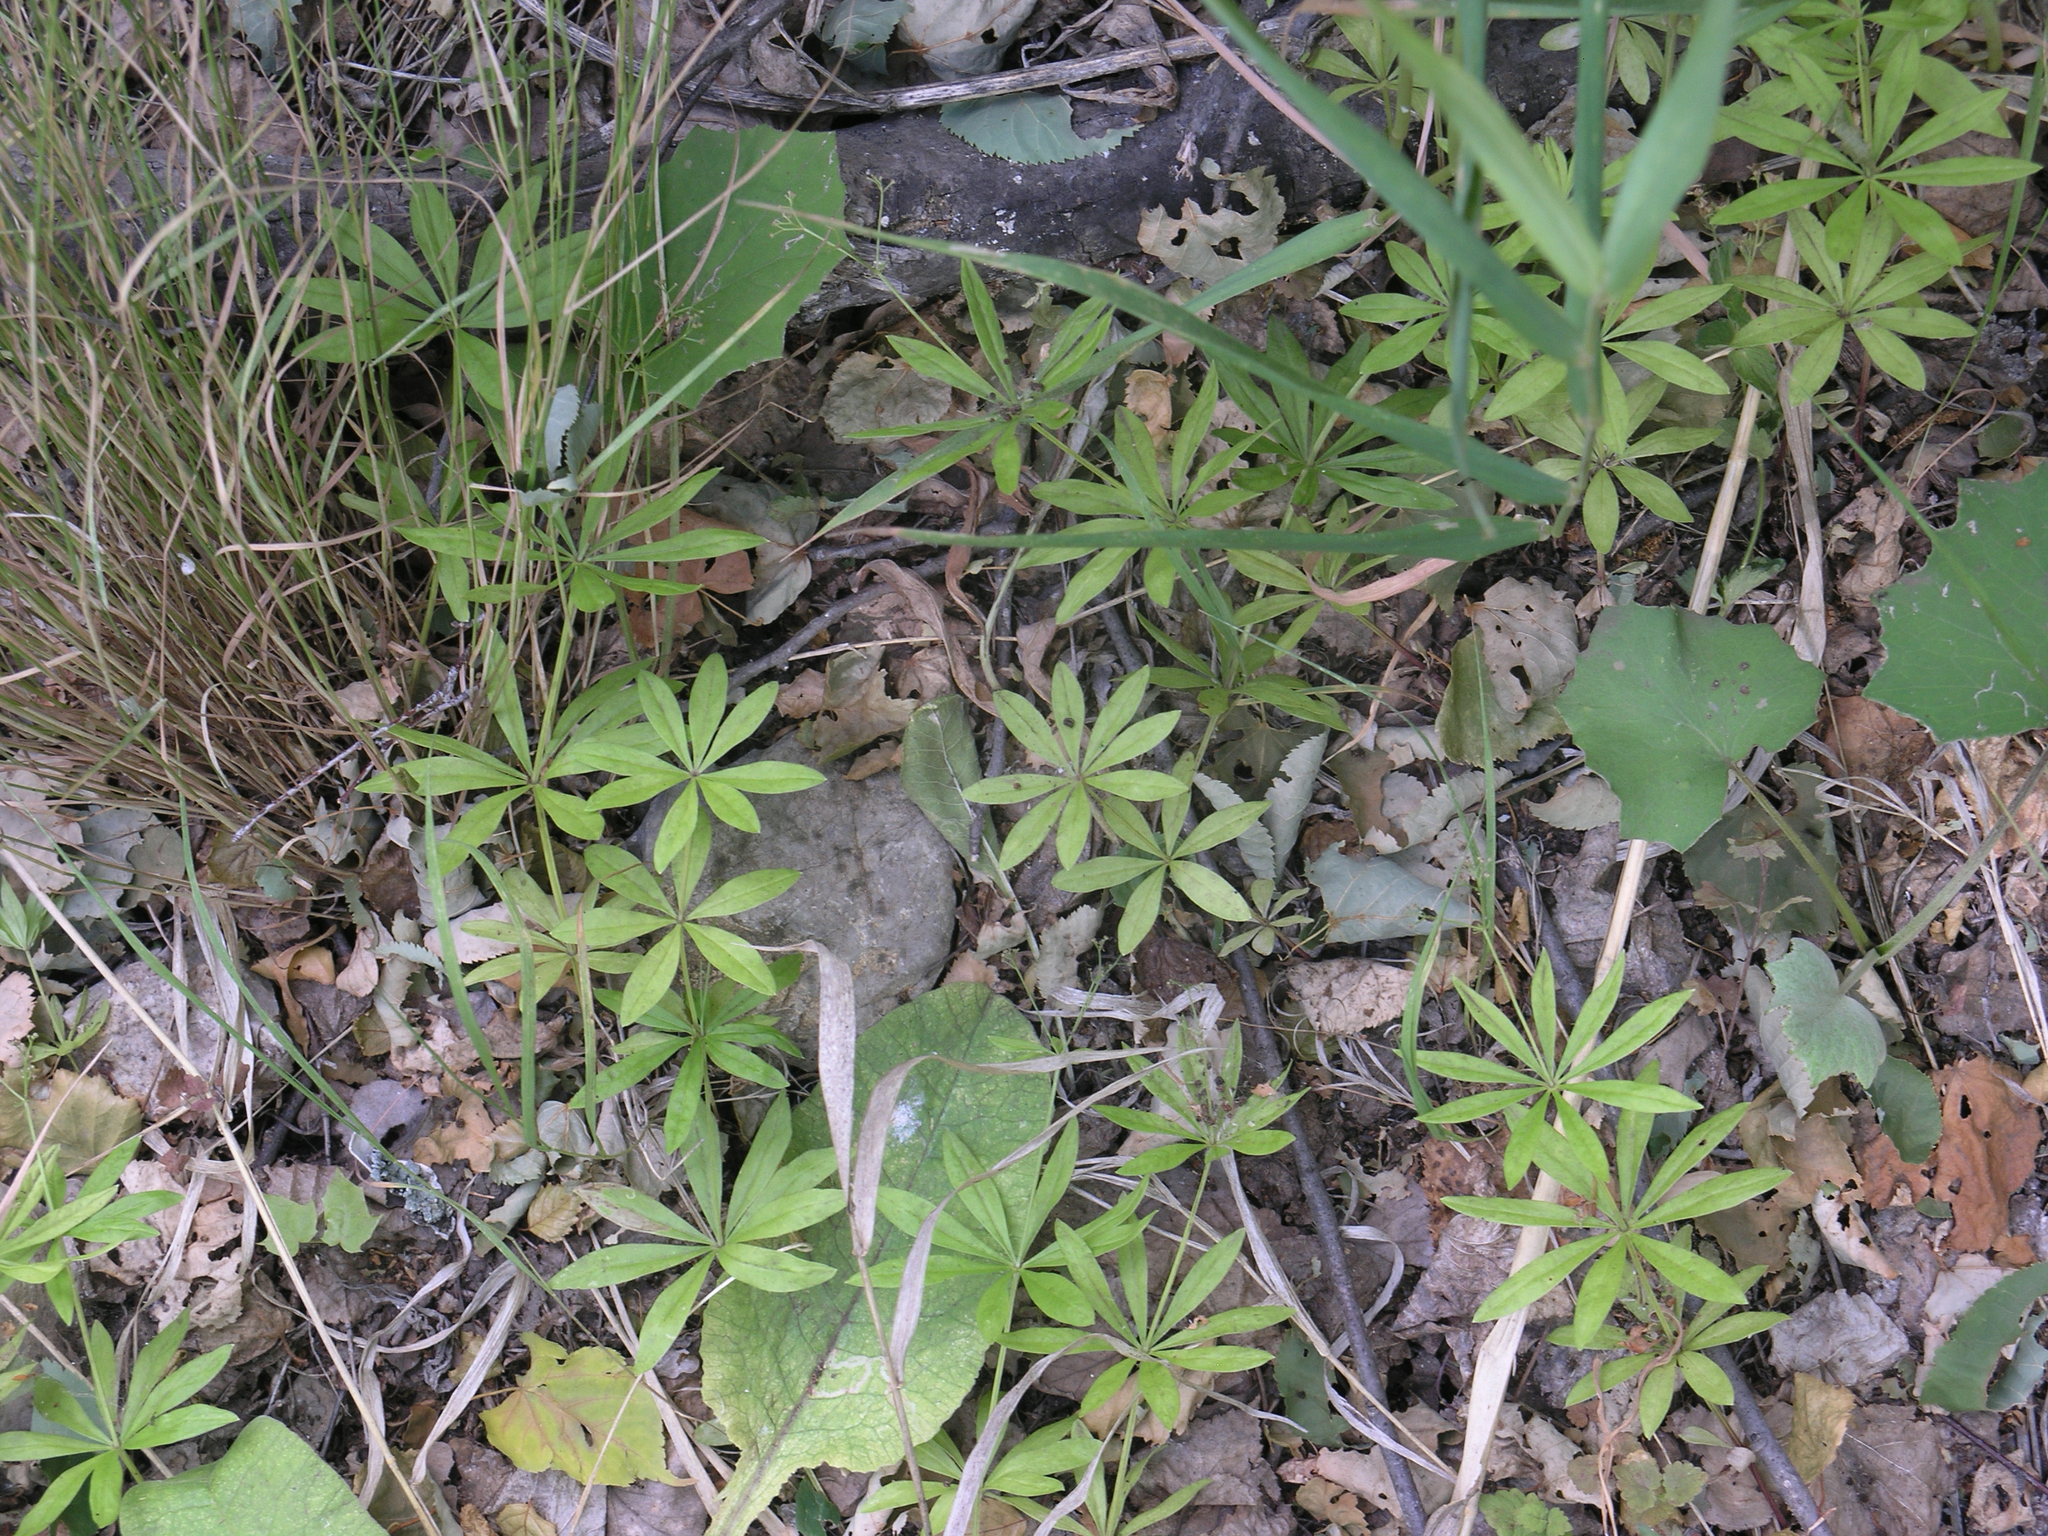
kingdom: Plantae
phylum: Tracheophyta
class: Magnoliopsida
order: Gentianales
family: Rubiaceae
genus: Galium
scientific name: Galium odoratum
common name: Sweet woodruff
